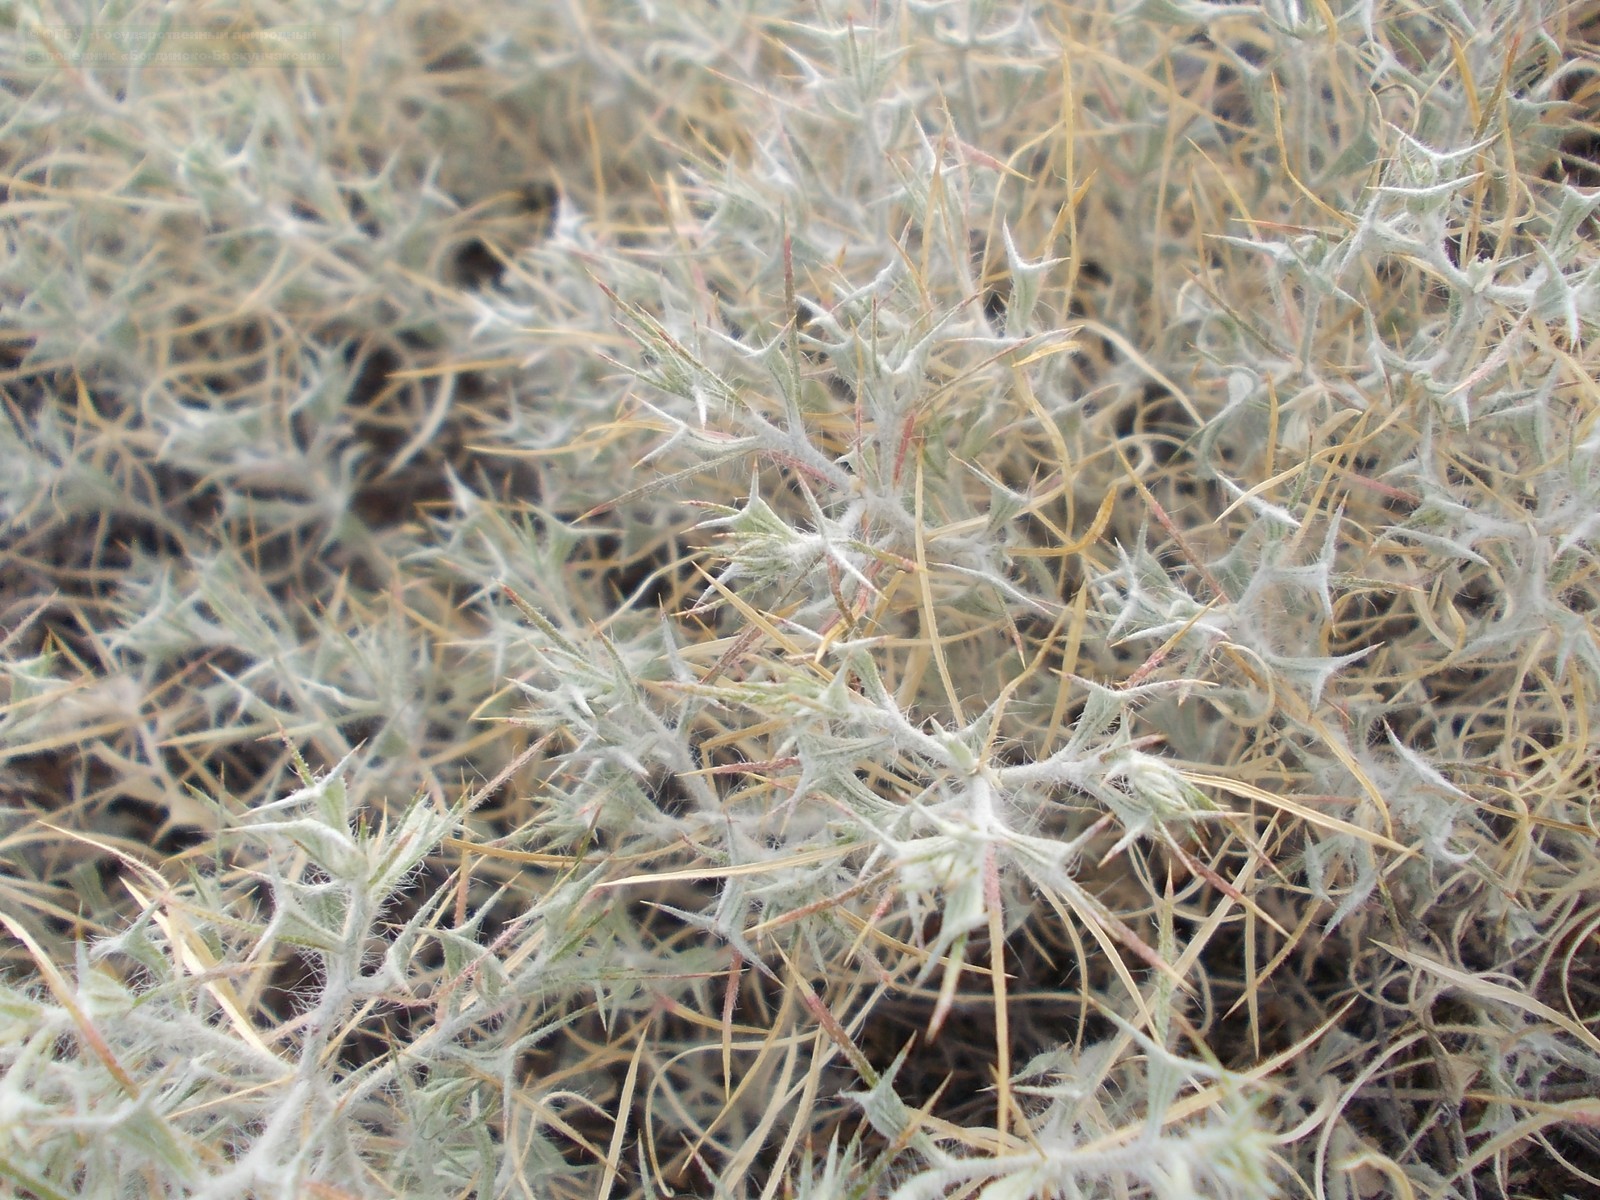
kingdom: Plantae
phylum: Tracheophyta
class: Magnoliopsida
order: Caryophyllales
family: Amaranthaceae
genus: Ceratocarpus
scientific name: Ceratocarpus arenarius
